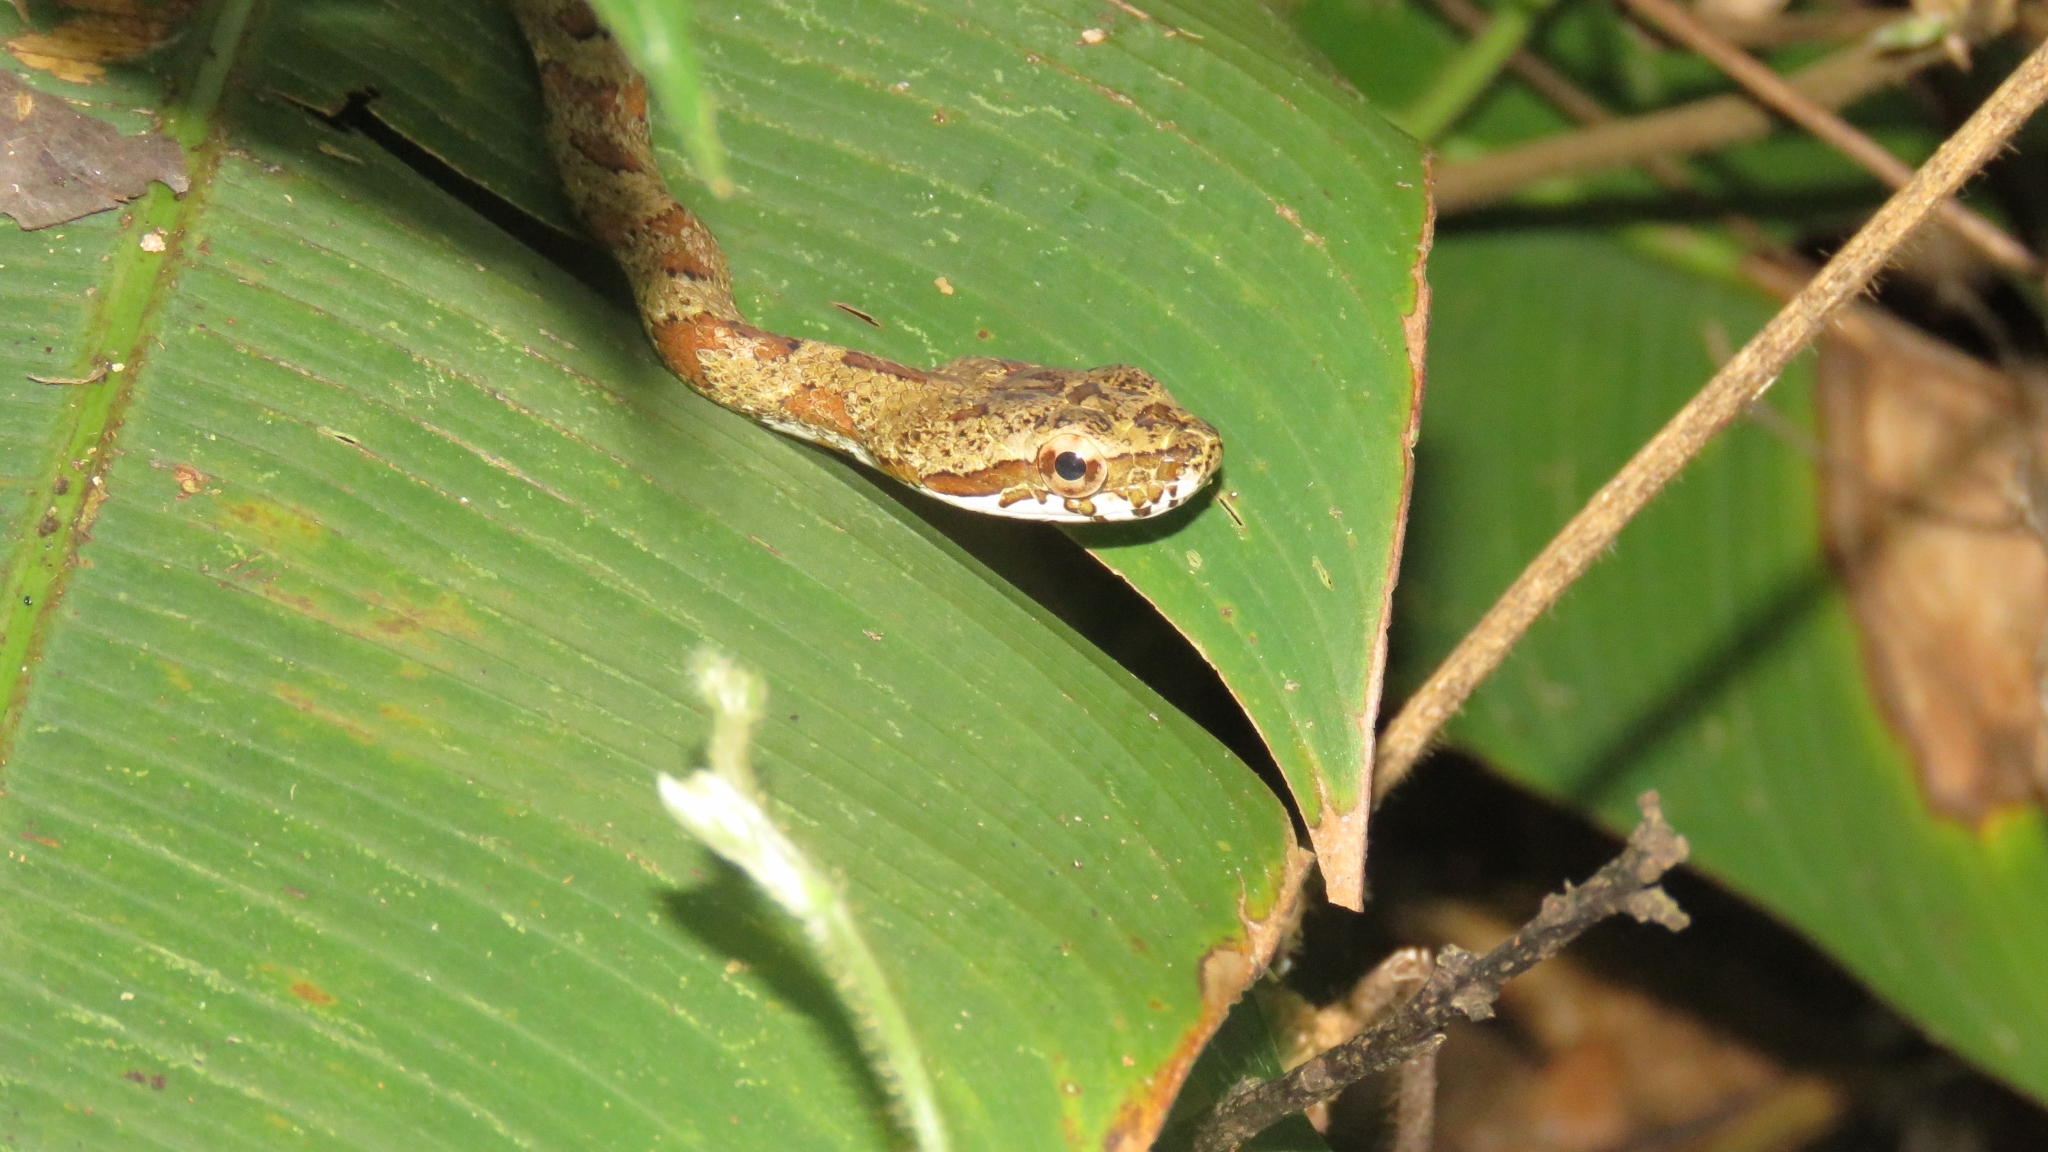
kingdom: Animalia
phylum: Chordata
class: Squamata
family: Colubridae
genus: Phrynonax
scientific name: Phrynonax poecilonotus
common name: Puffing snake
